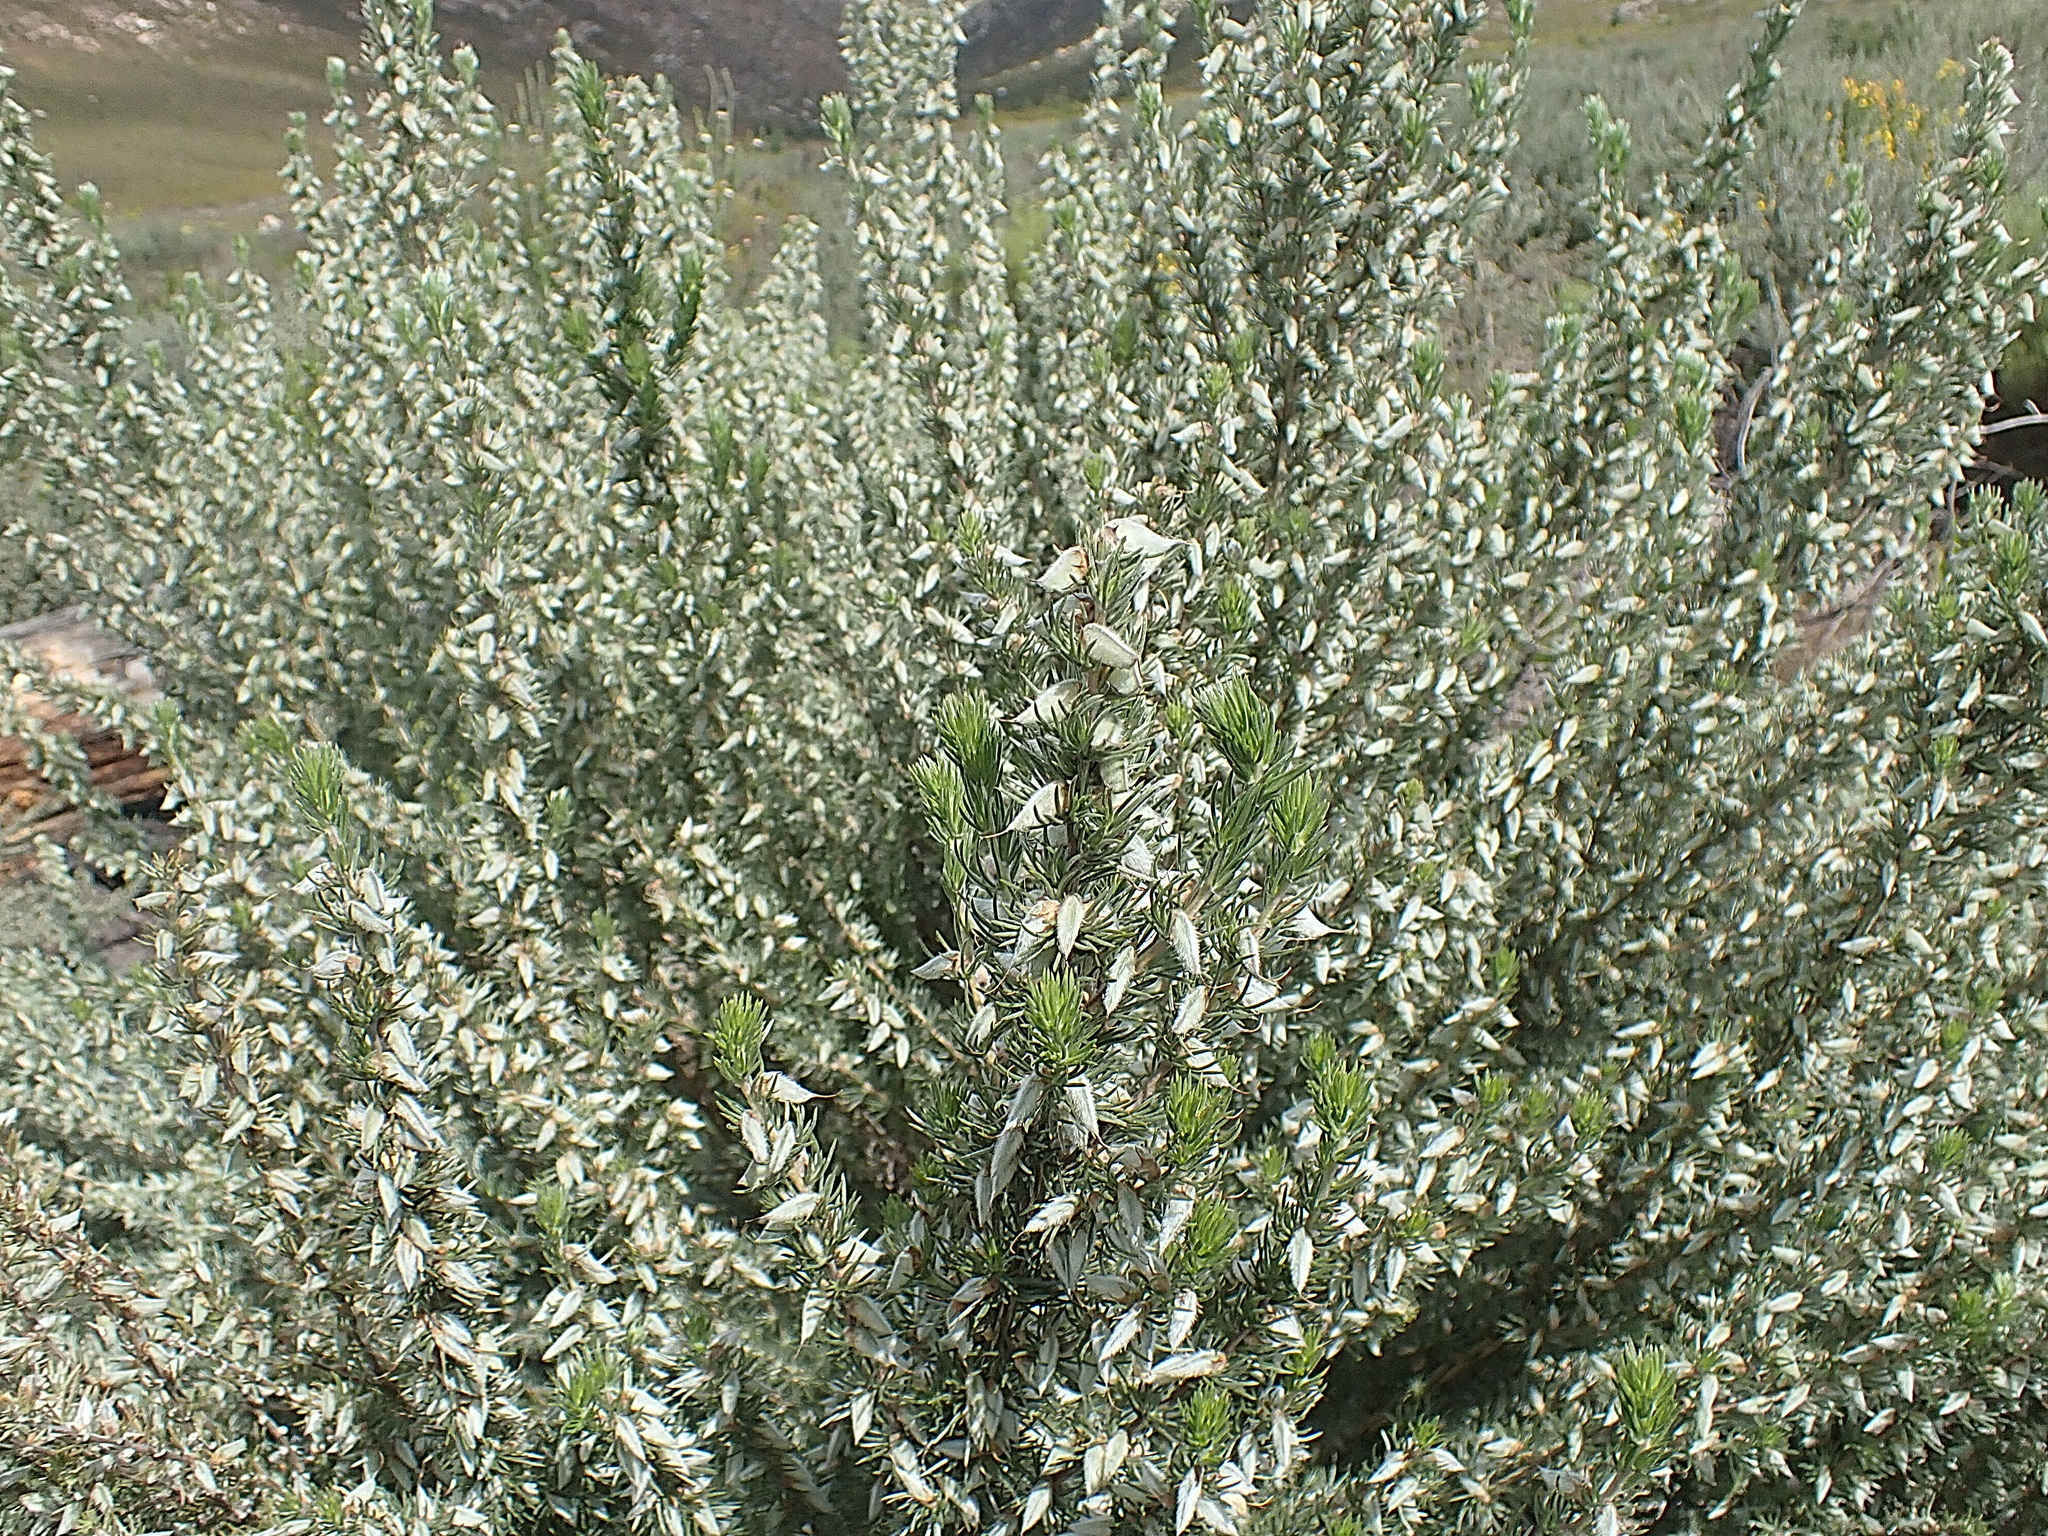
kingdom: Plantae
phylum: Tracheophyta
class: Magnoliopsida
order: Fabales
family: Fabaceae
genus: Aspalathus
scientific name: Aspalathus glabrescens
